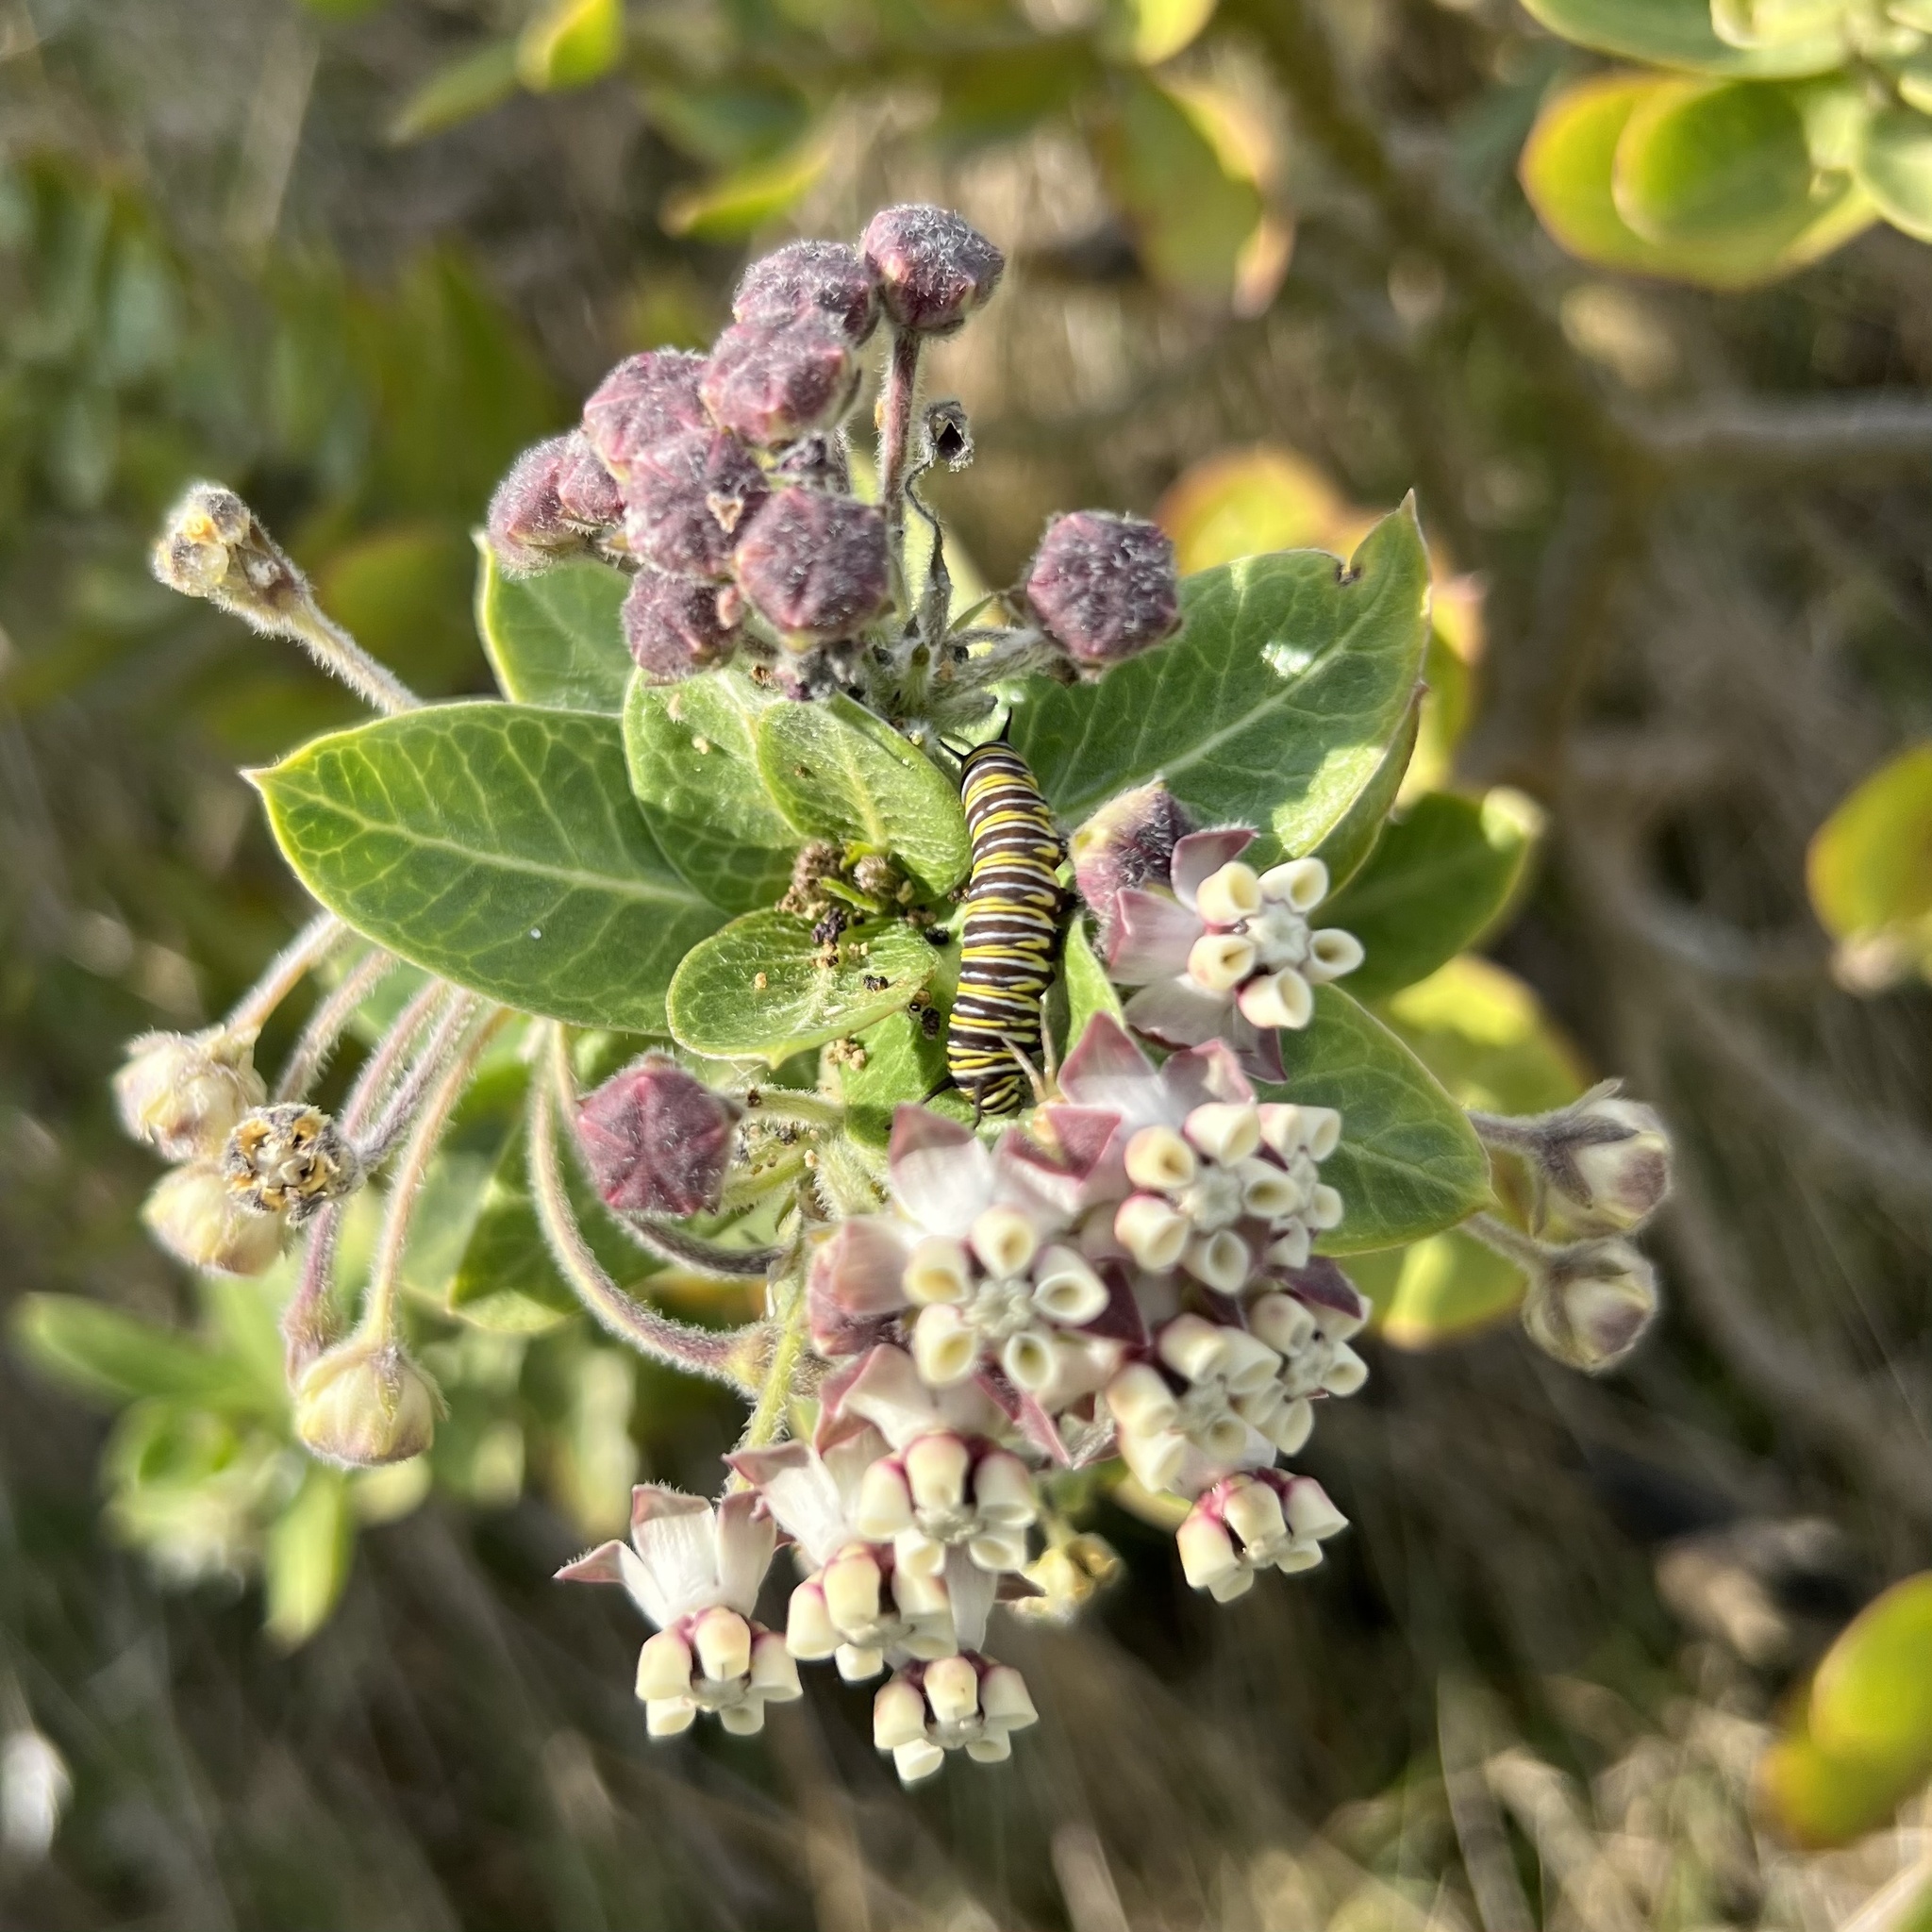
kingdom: Animalia
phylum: Arthropoda
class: Insecta
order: Lepidoptera
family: Nymphalidae
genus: Danaus
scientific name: Danaus plexippus
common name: Monarch
